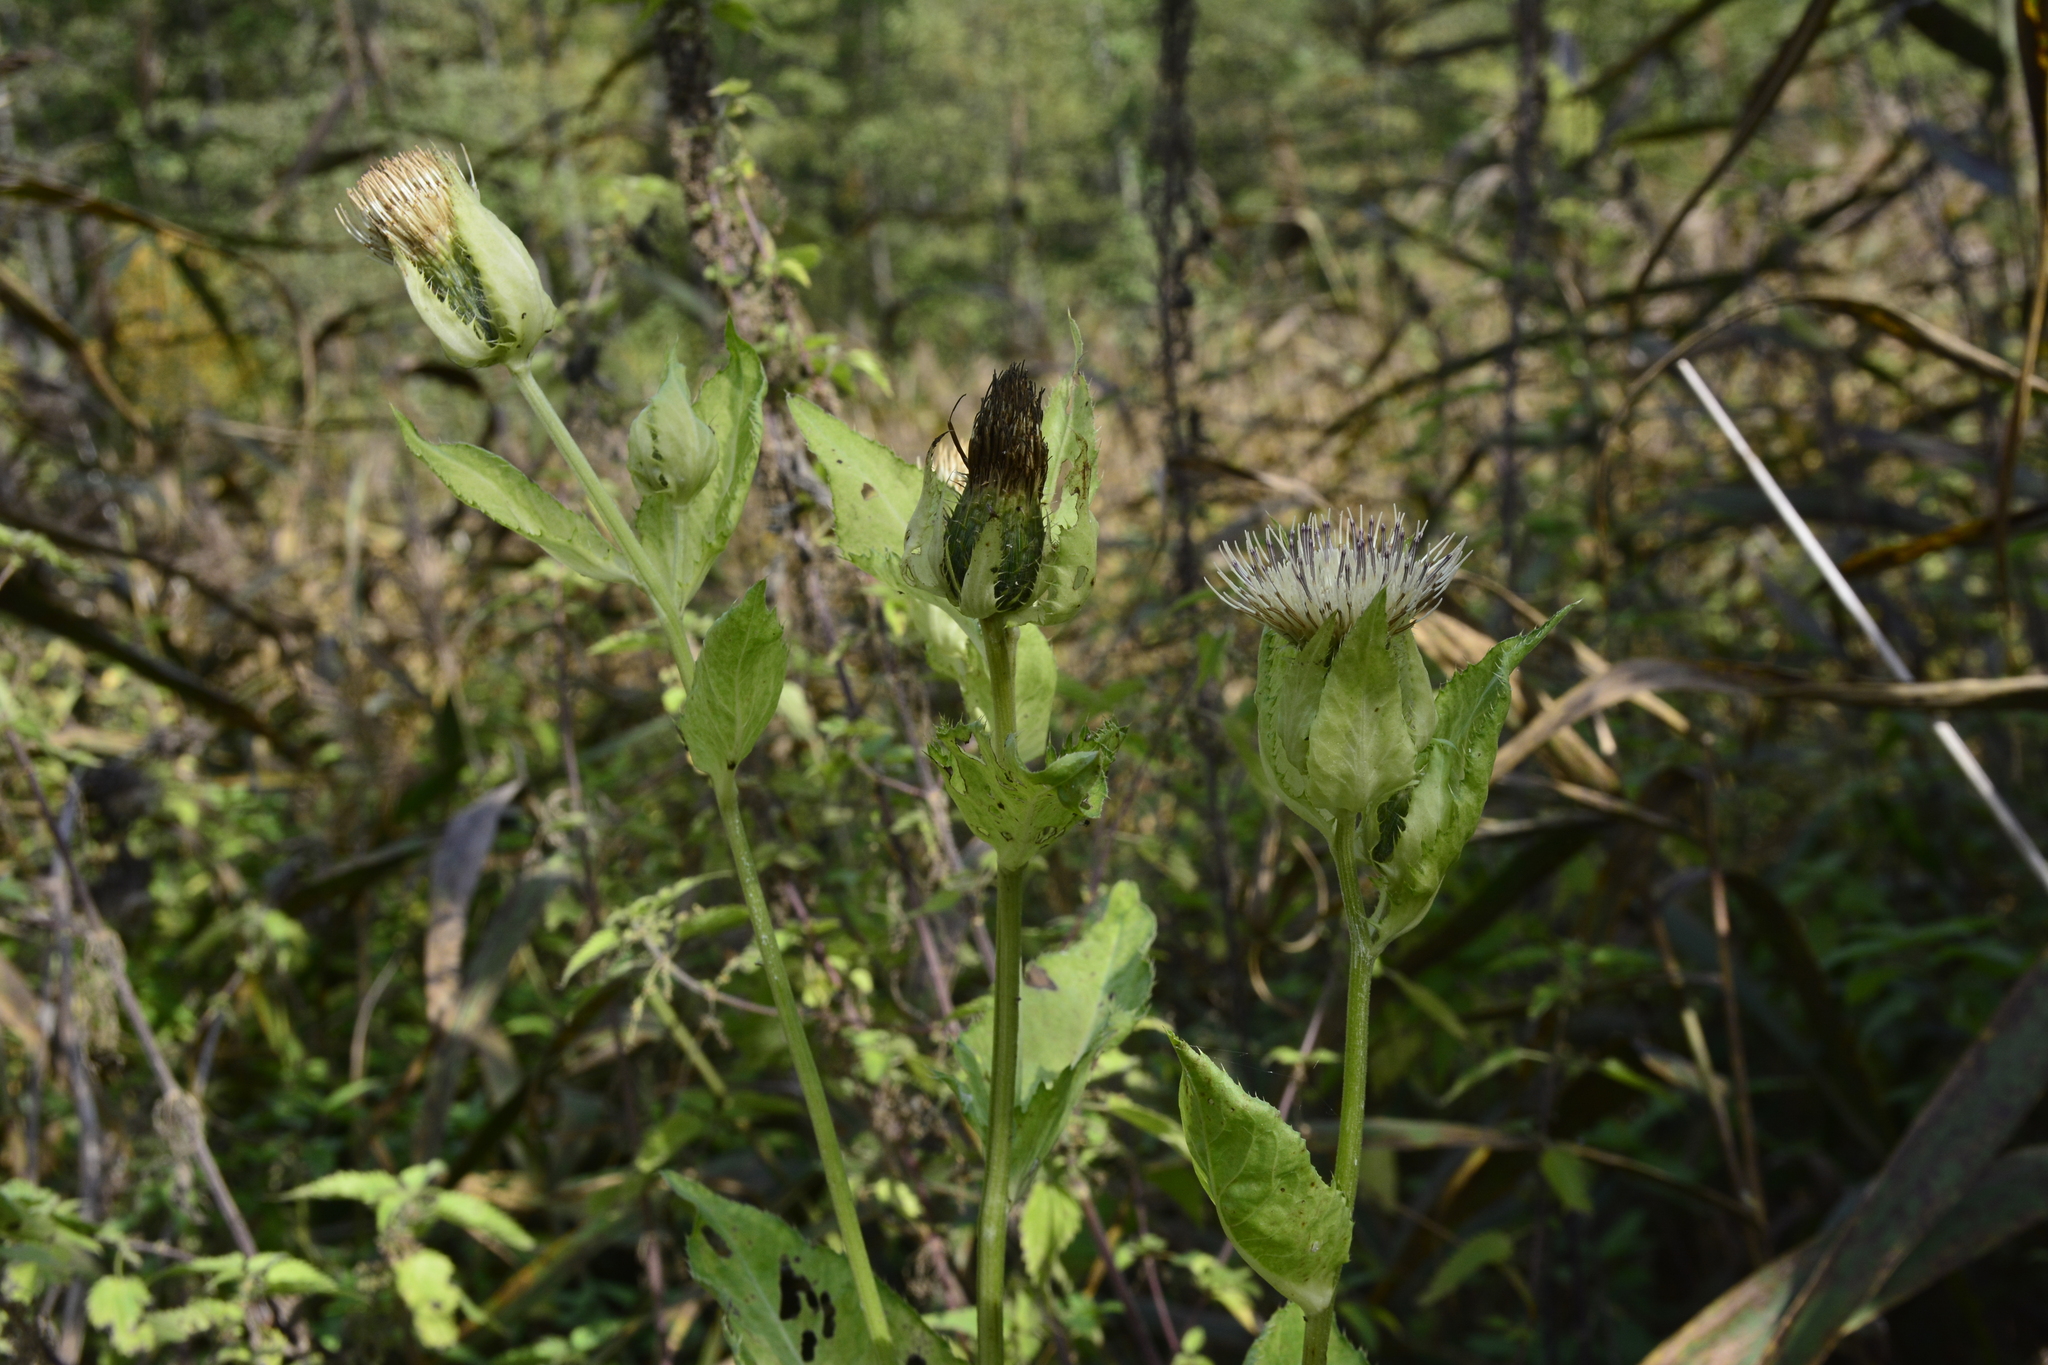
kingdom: Plantae
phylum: Tracheophyta
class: Magnoliopsida
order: Asterales
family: Asteraceae
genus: Cirsium
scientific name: Cirsium oleraceum
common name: Cabbage thistle
